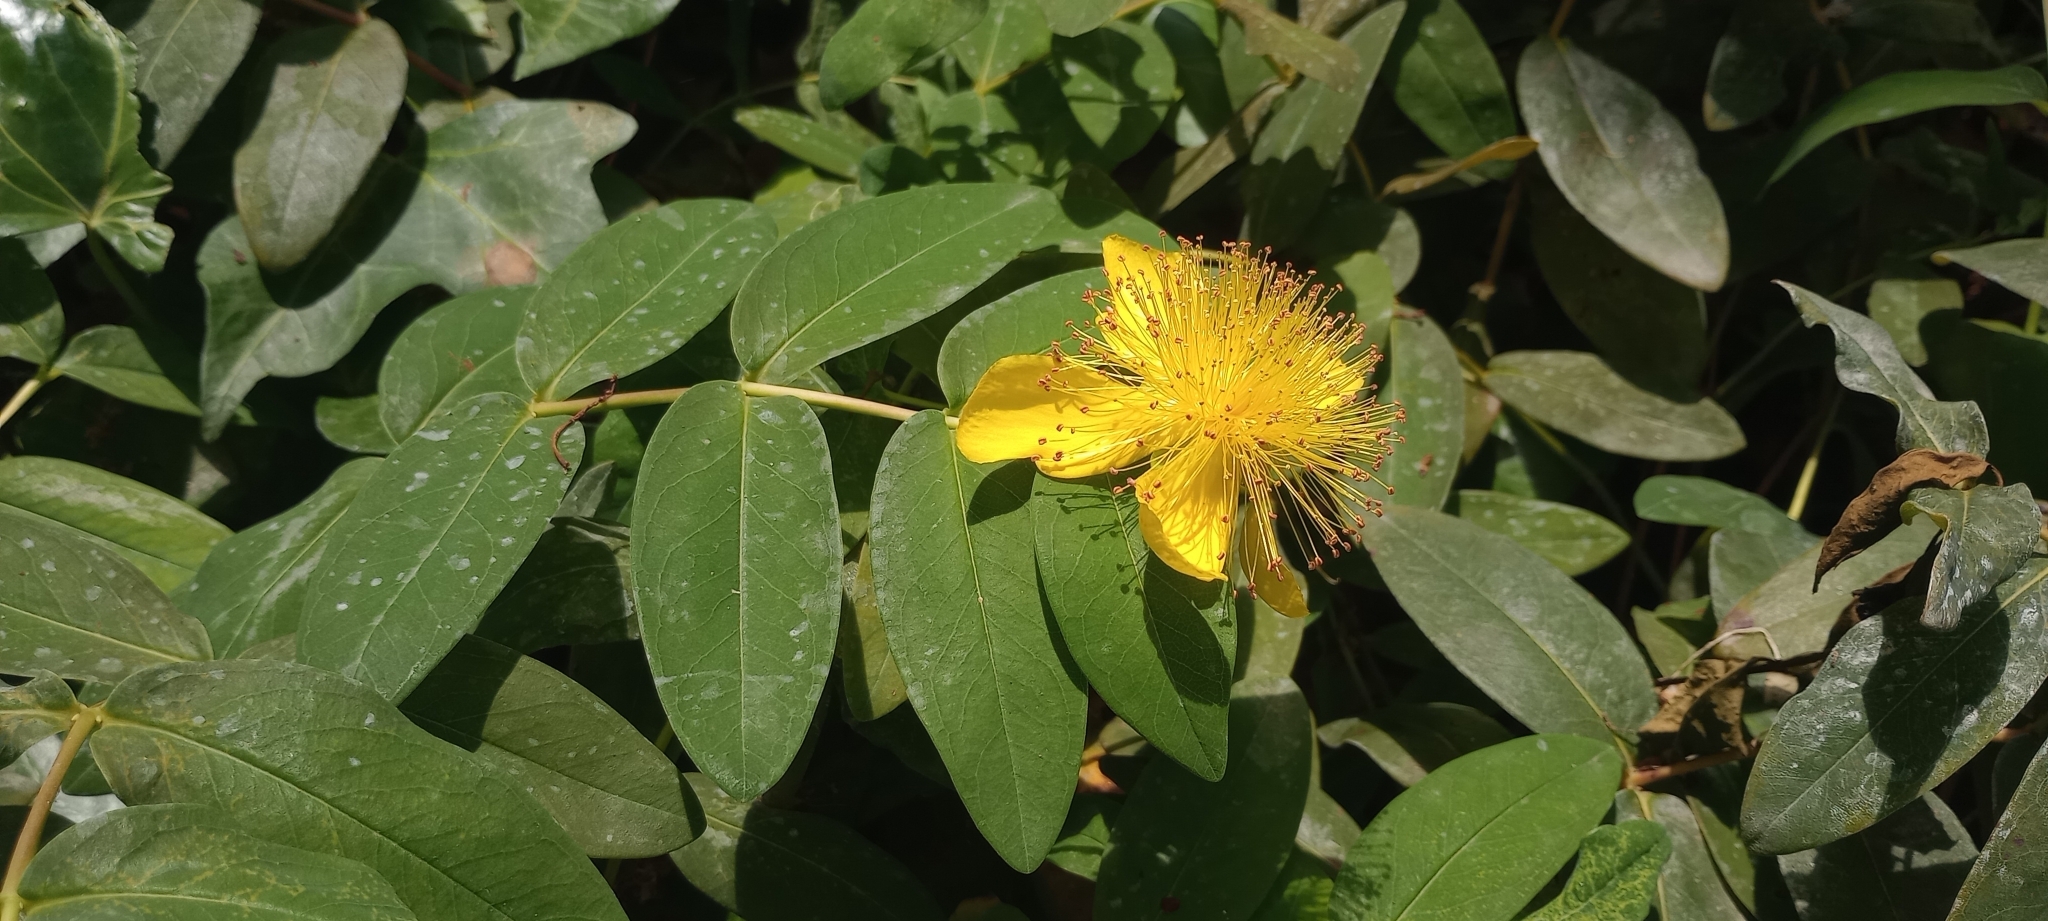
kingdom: Plantae
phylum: Tracheophyta
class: Magnoliopsida
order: Malpighiales
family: Hypericaceae
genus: Hypericum
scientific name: Hypericum calycinum
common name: Rose-of-sharon
